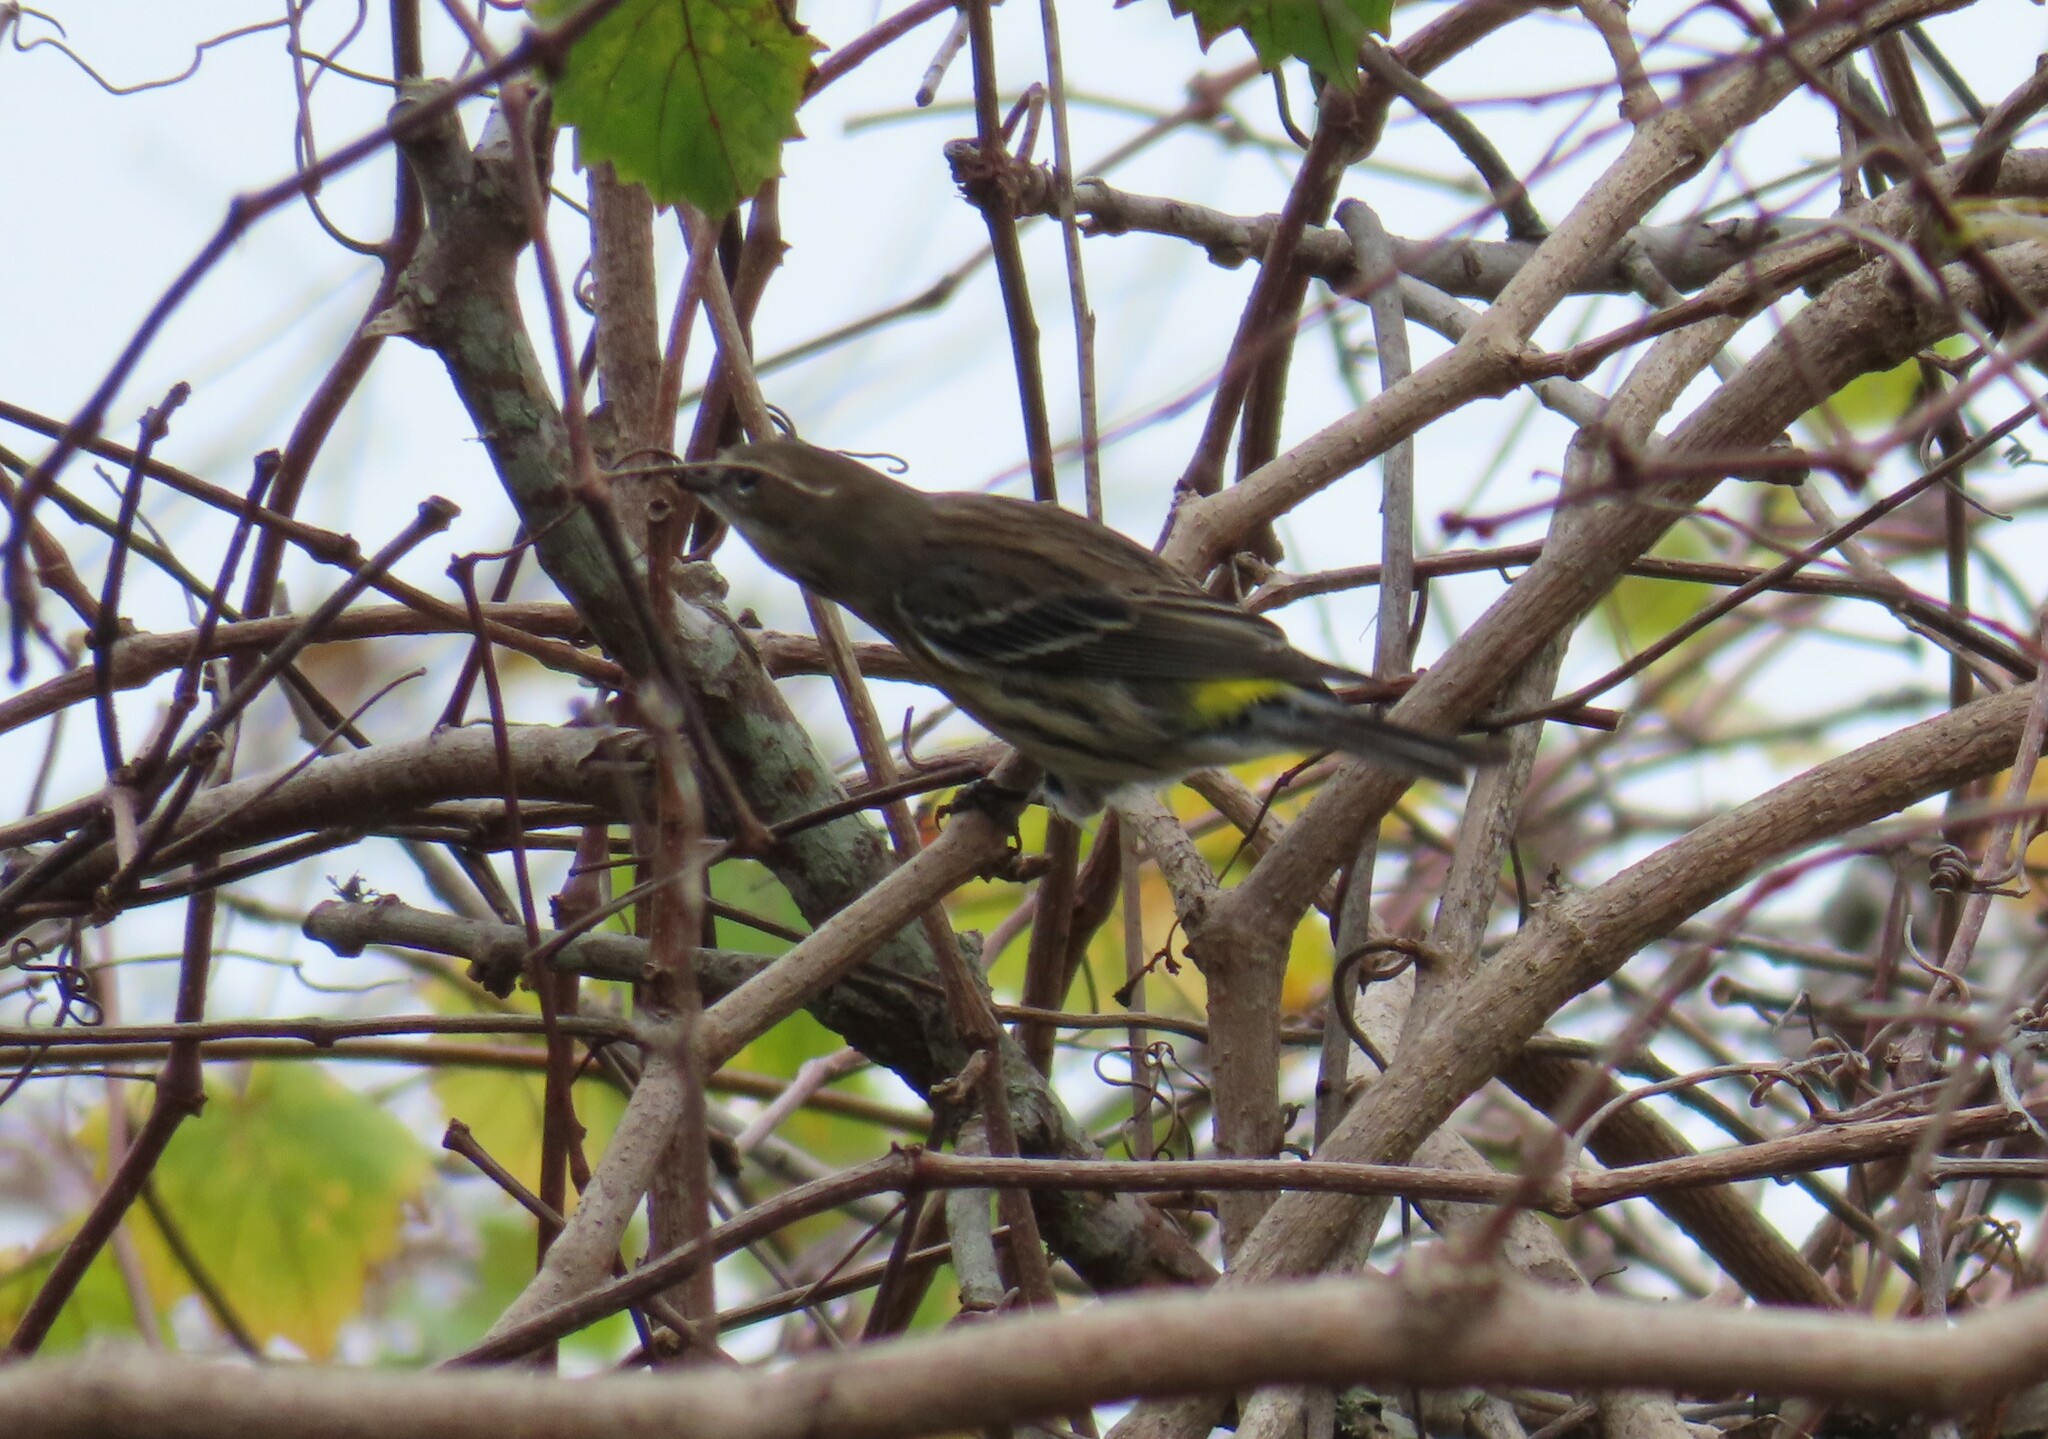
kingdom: Animalia
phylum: Chordata
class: Aves
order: Passeriformes
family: Parulidae
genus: Setophaga
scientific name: Setophaga coronata
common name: Myrtle warbler
